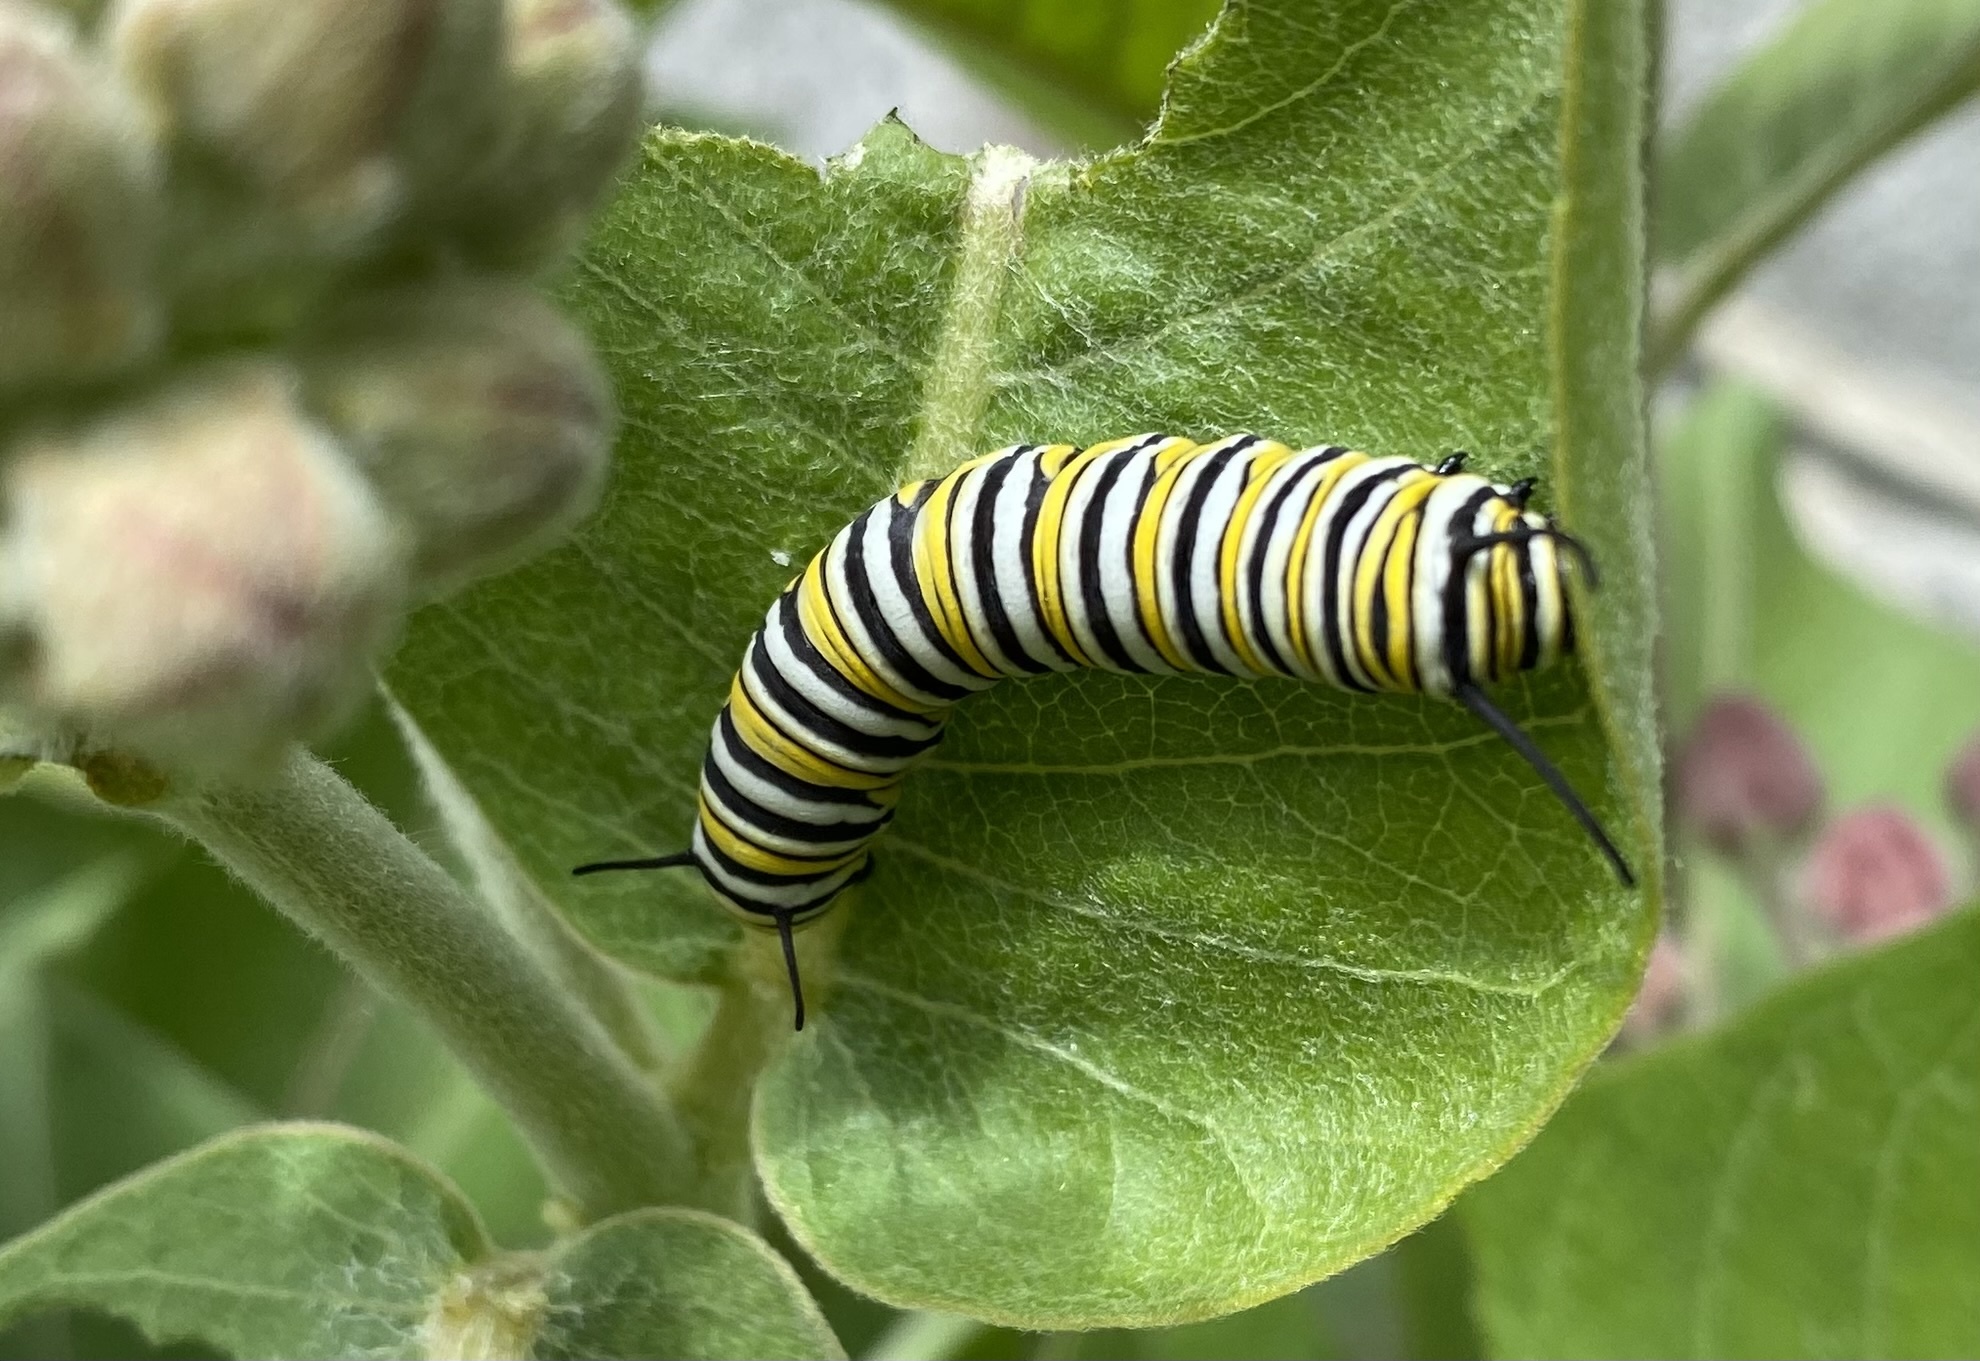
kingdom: Animalia
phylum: Arthropoda
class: Insecta
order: Lepidoptera
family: Nymphalidae
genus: Danaus
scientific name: Danaus plexippus
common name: Monarch
